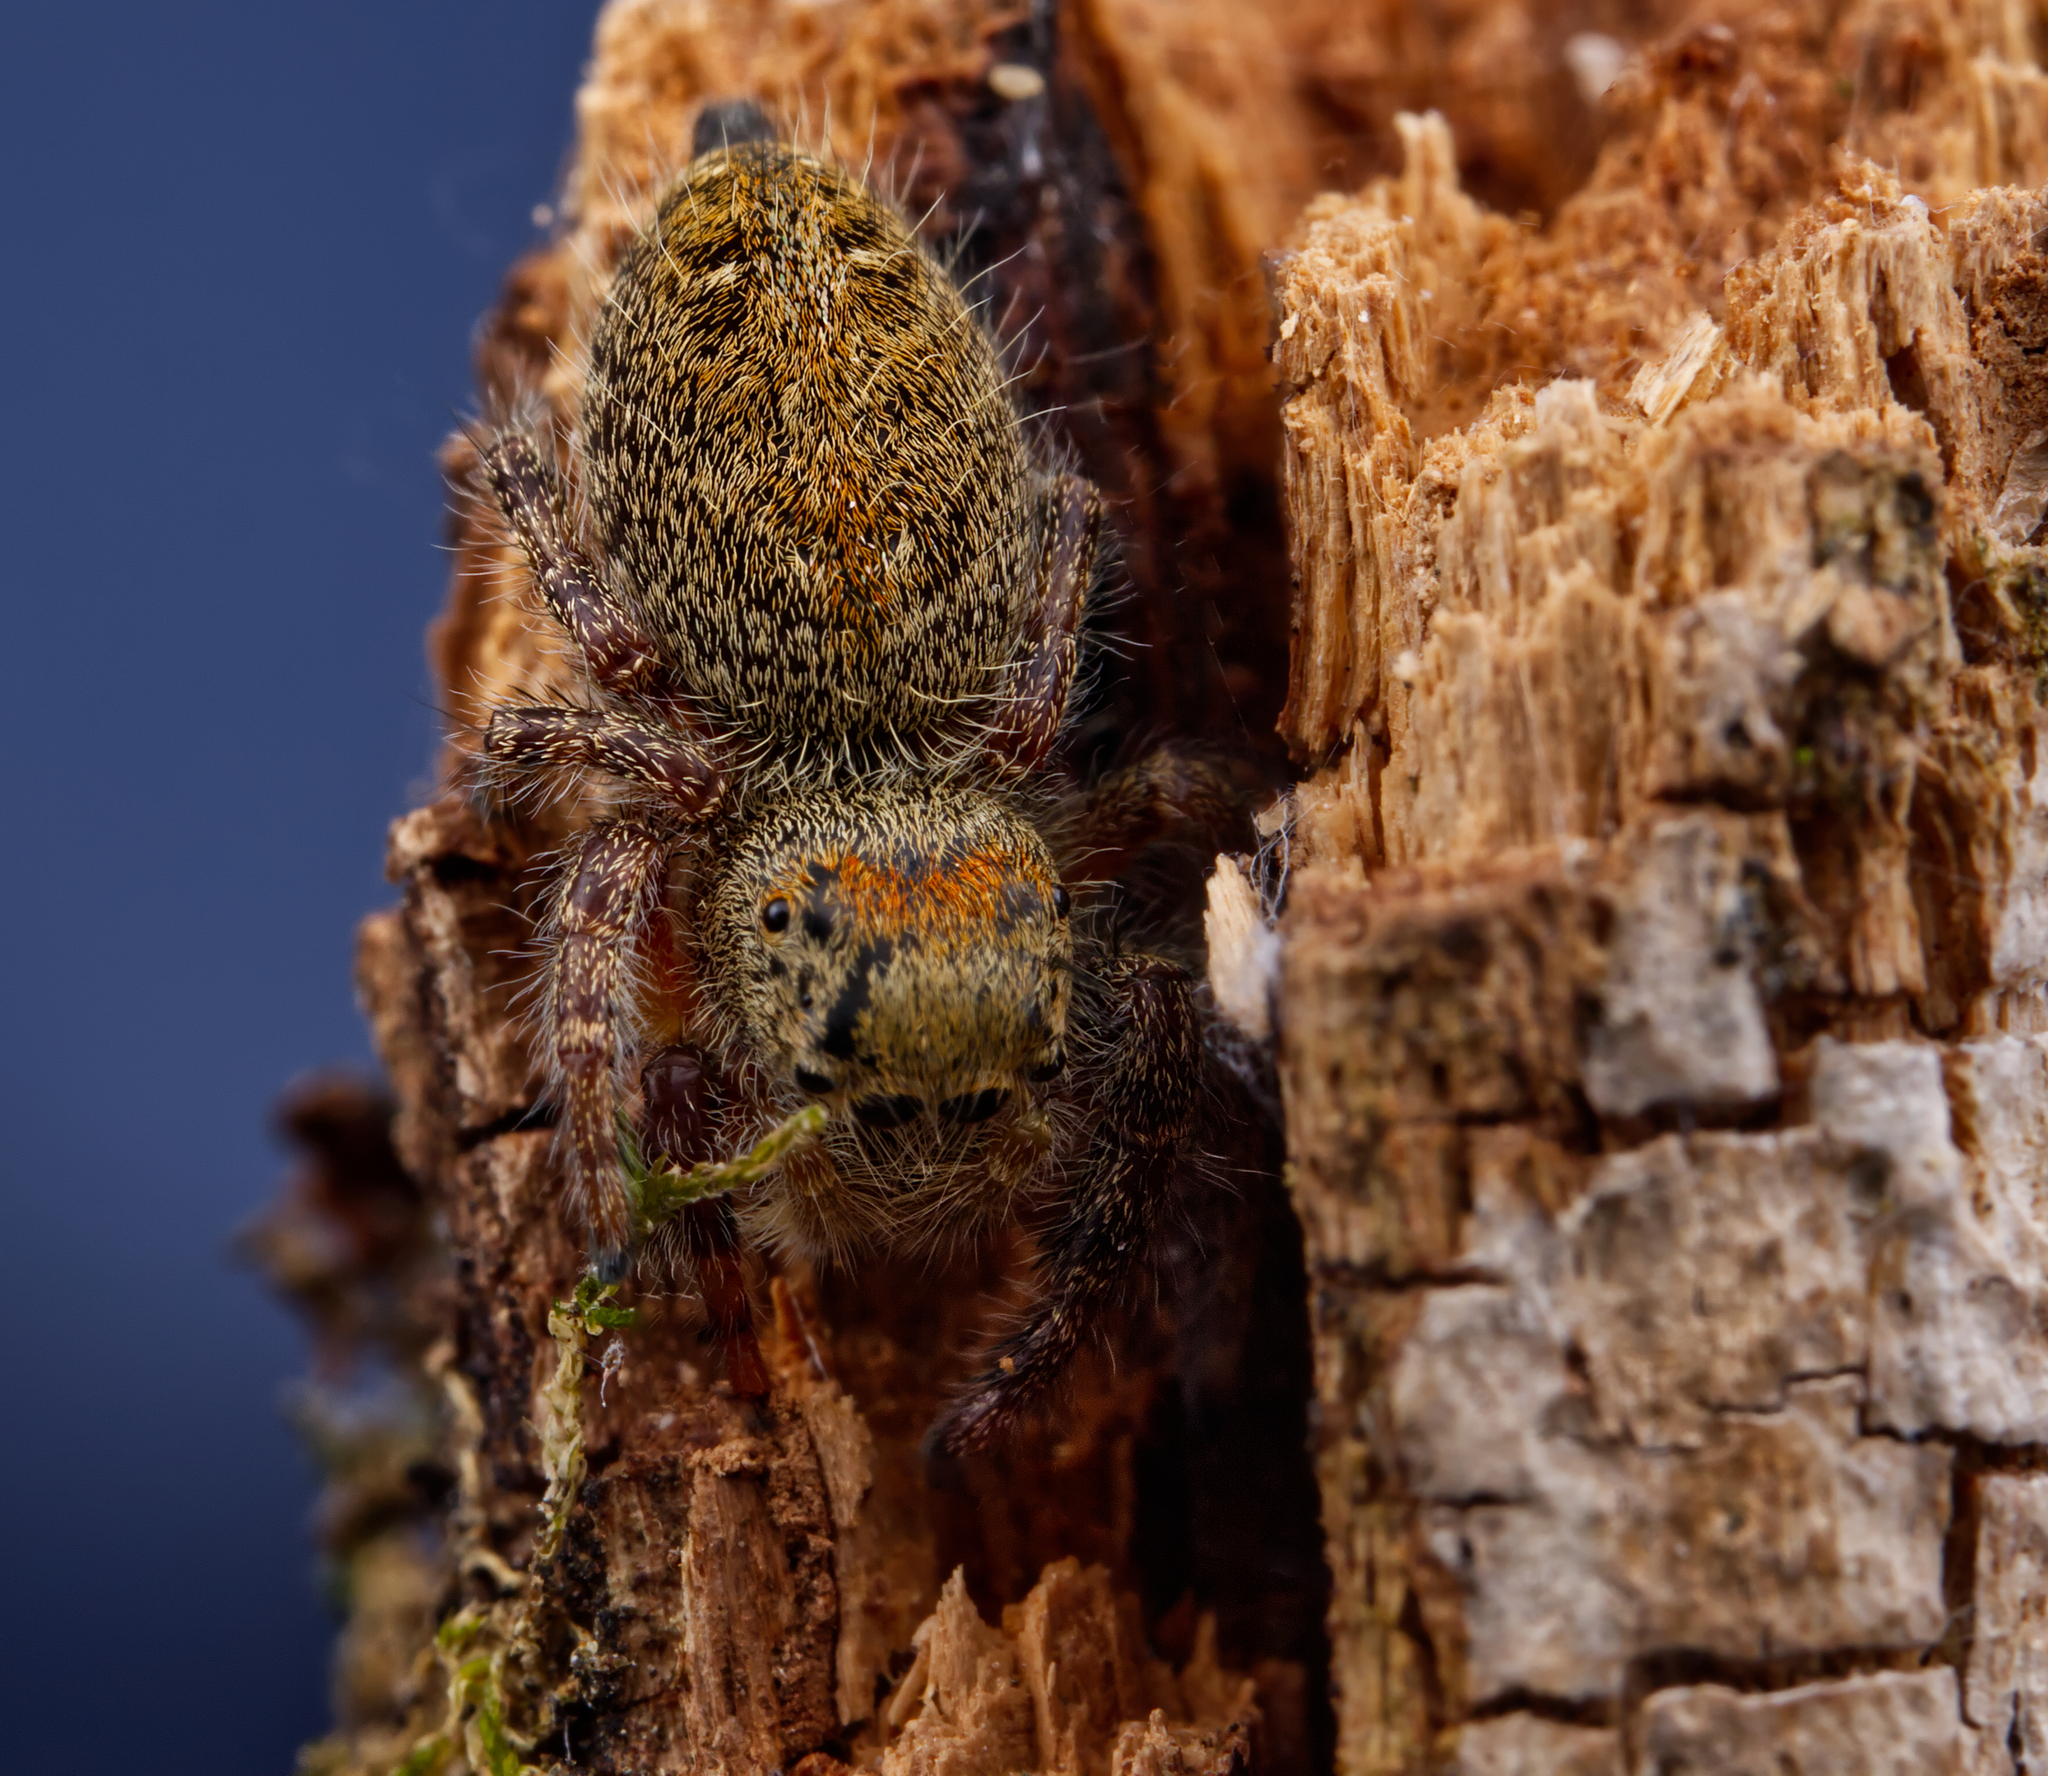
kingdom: Animalia
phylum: Arthropoda
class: Arachnida
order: Araneae
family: Salticidae
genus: Phidippus
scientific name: Phidippus princeps
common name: Grayish jumping spider
